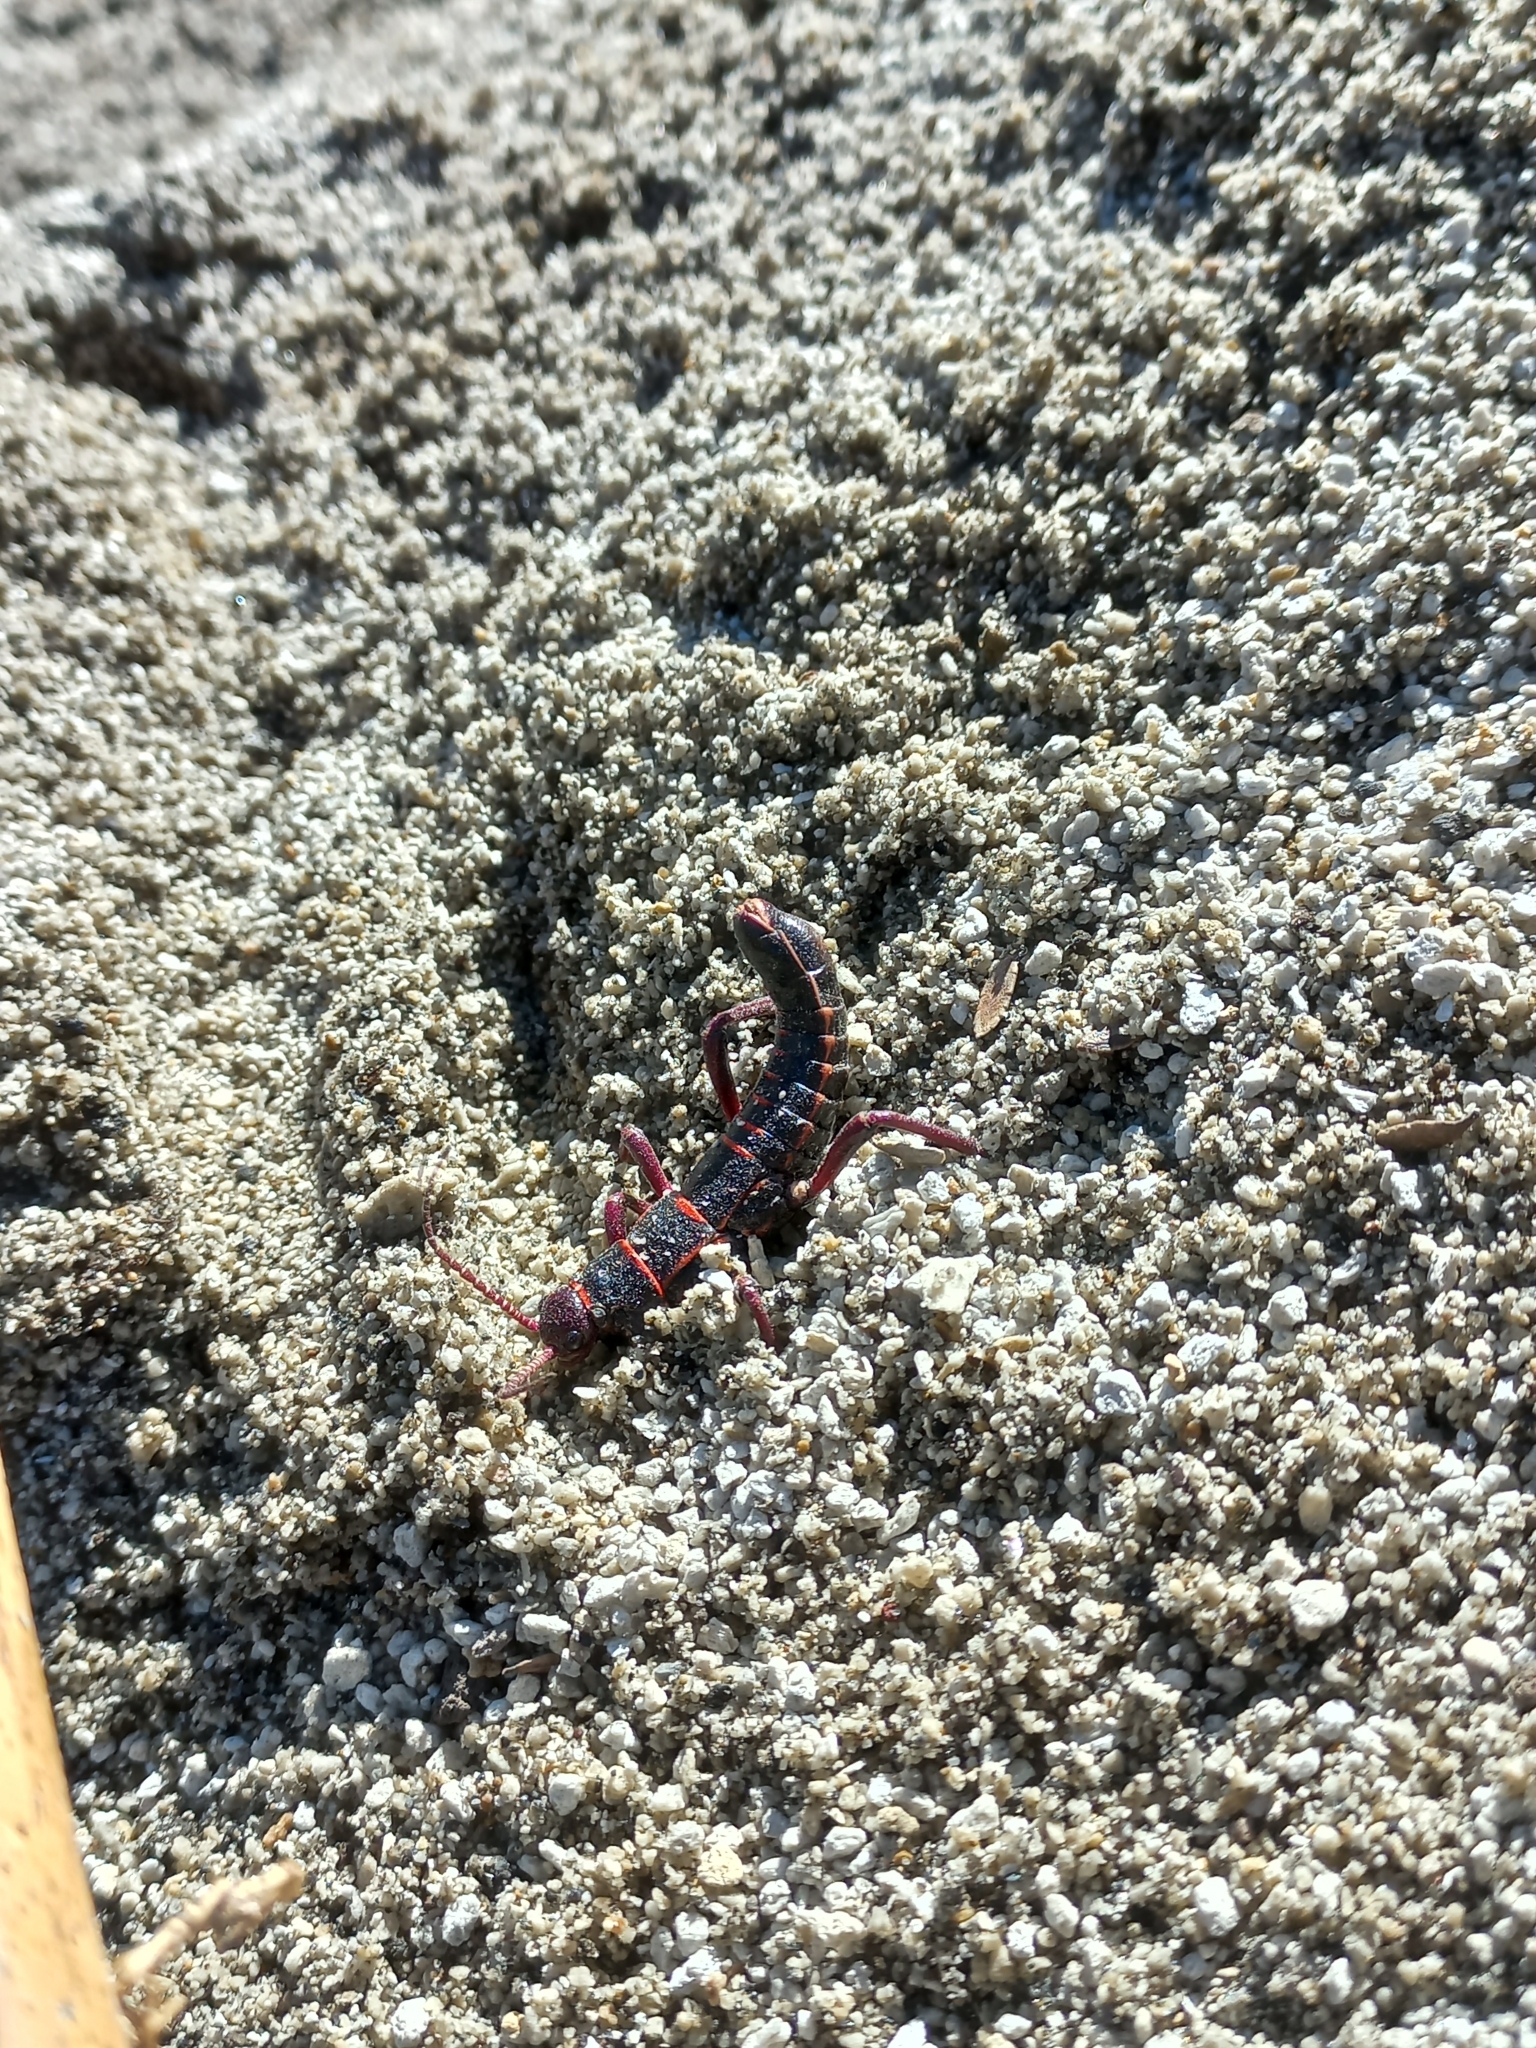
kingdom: Animalia
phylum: Arthropoda
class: Insecta
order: Phasmida
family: Agathemeridae
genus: Agathemera
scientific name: Agathemera elegans
